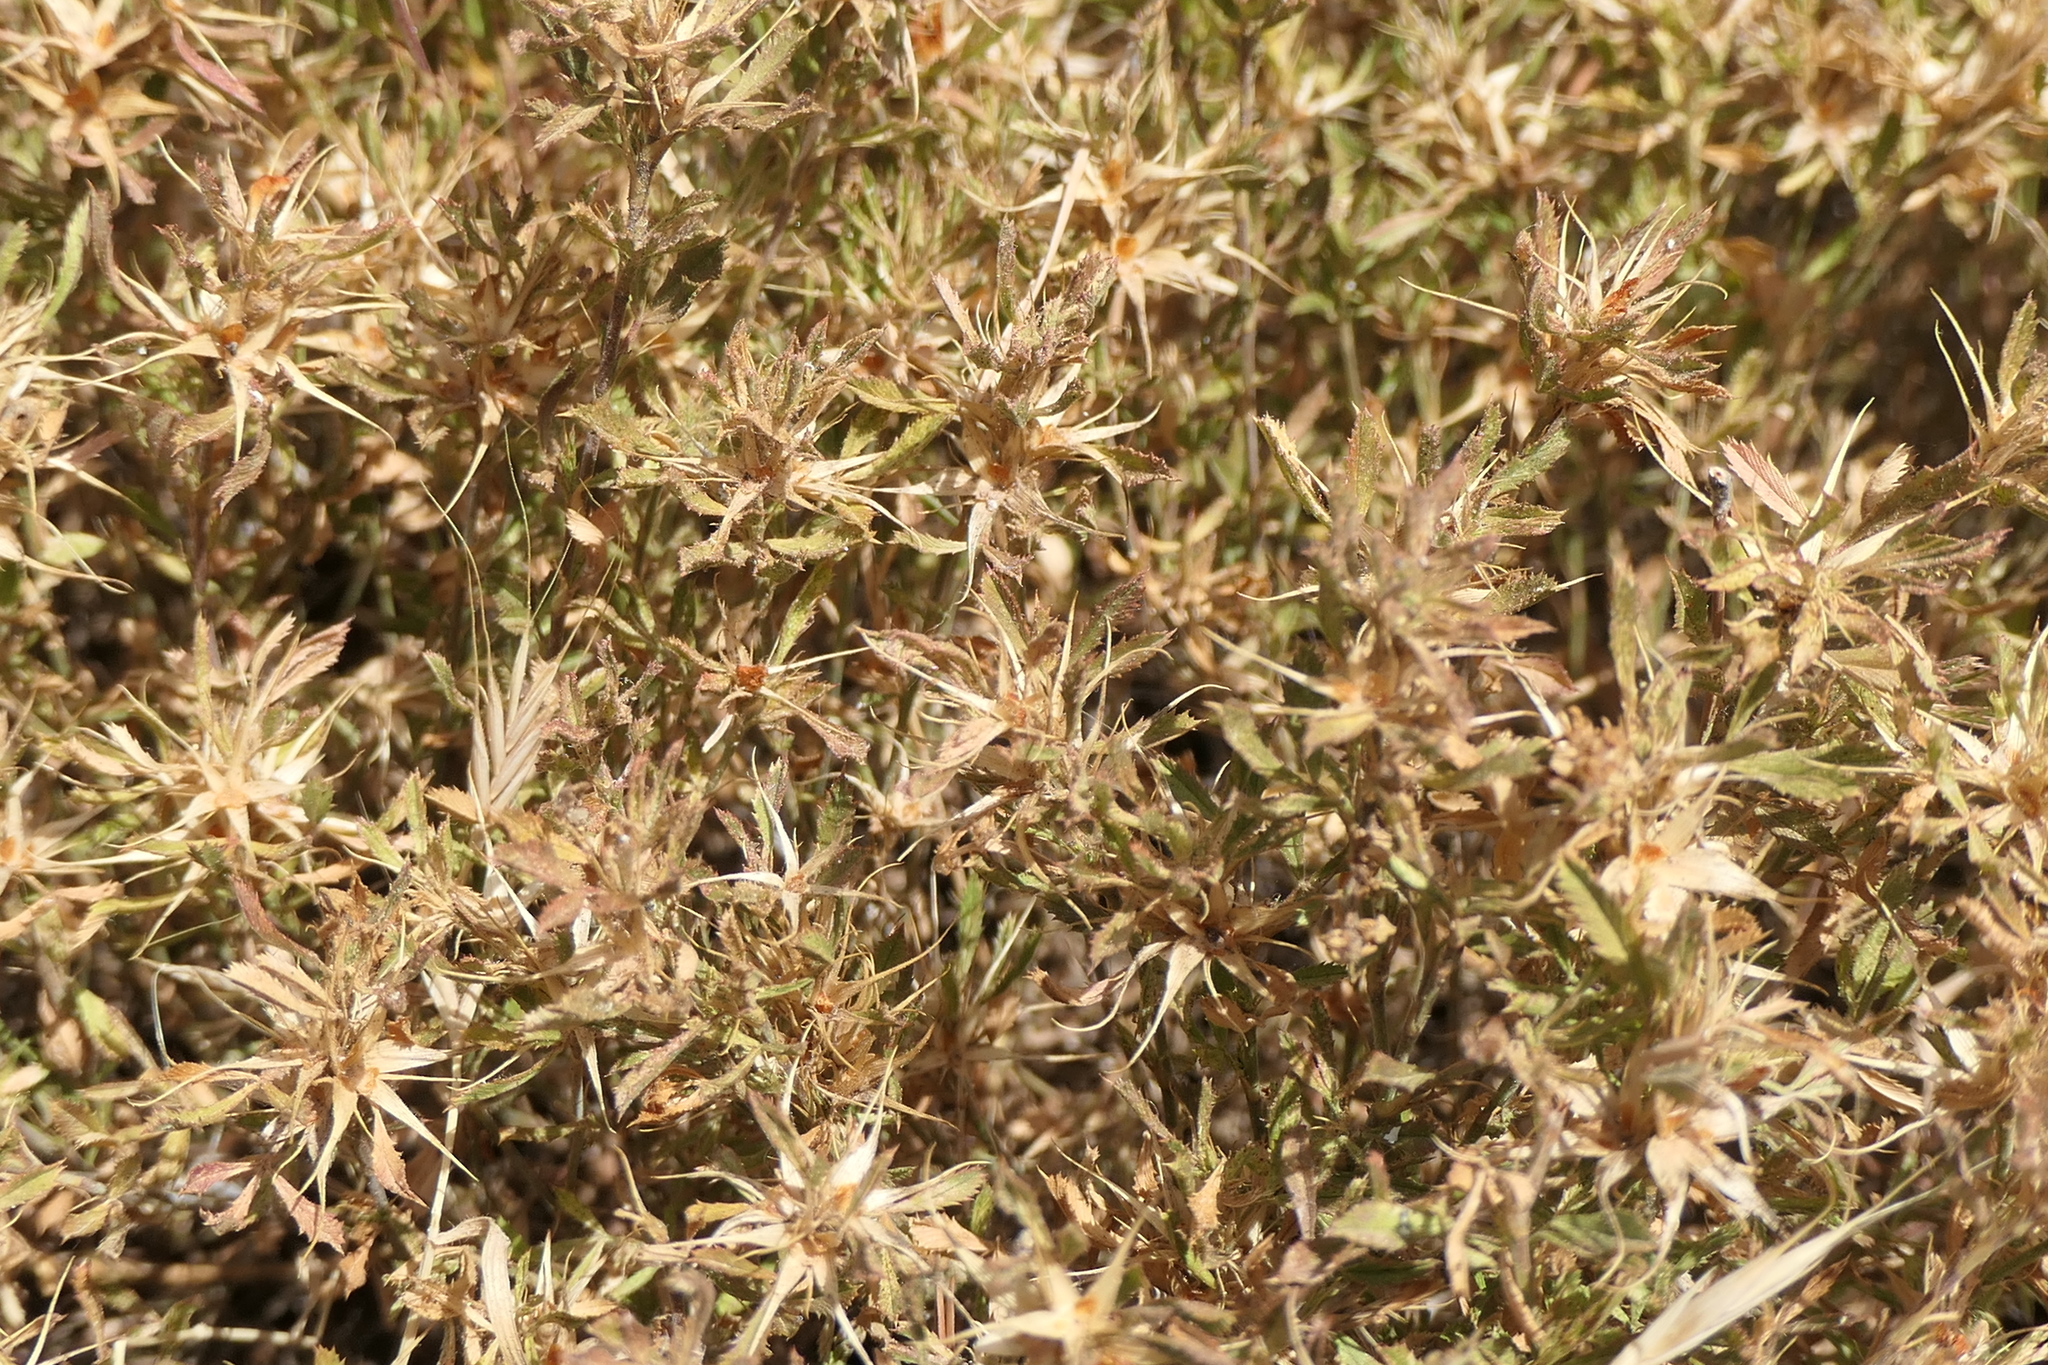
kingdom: Plantae
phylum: Tracheophyta
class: Magnoliopsida
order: Fabales
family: Fabaceae
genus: Ononis
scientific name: Ononis minutissima
